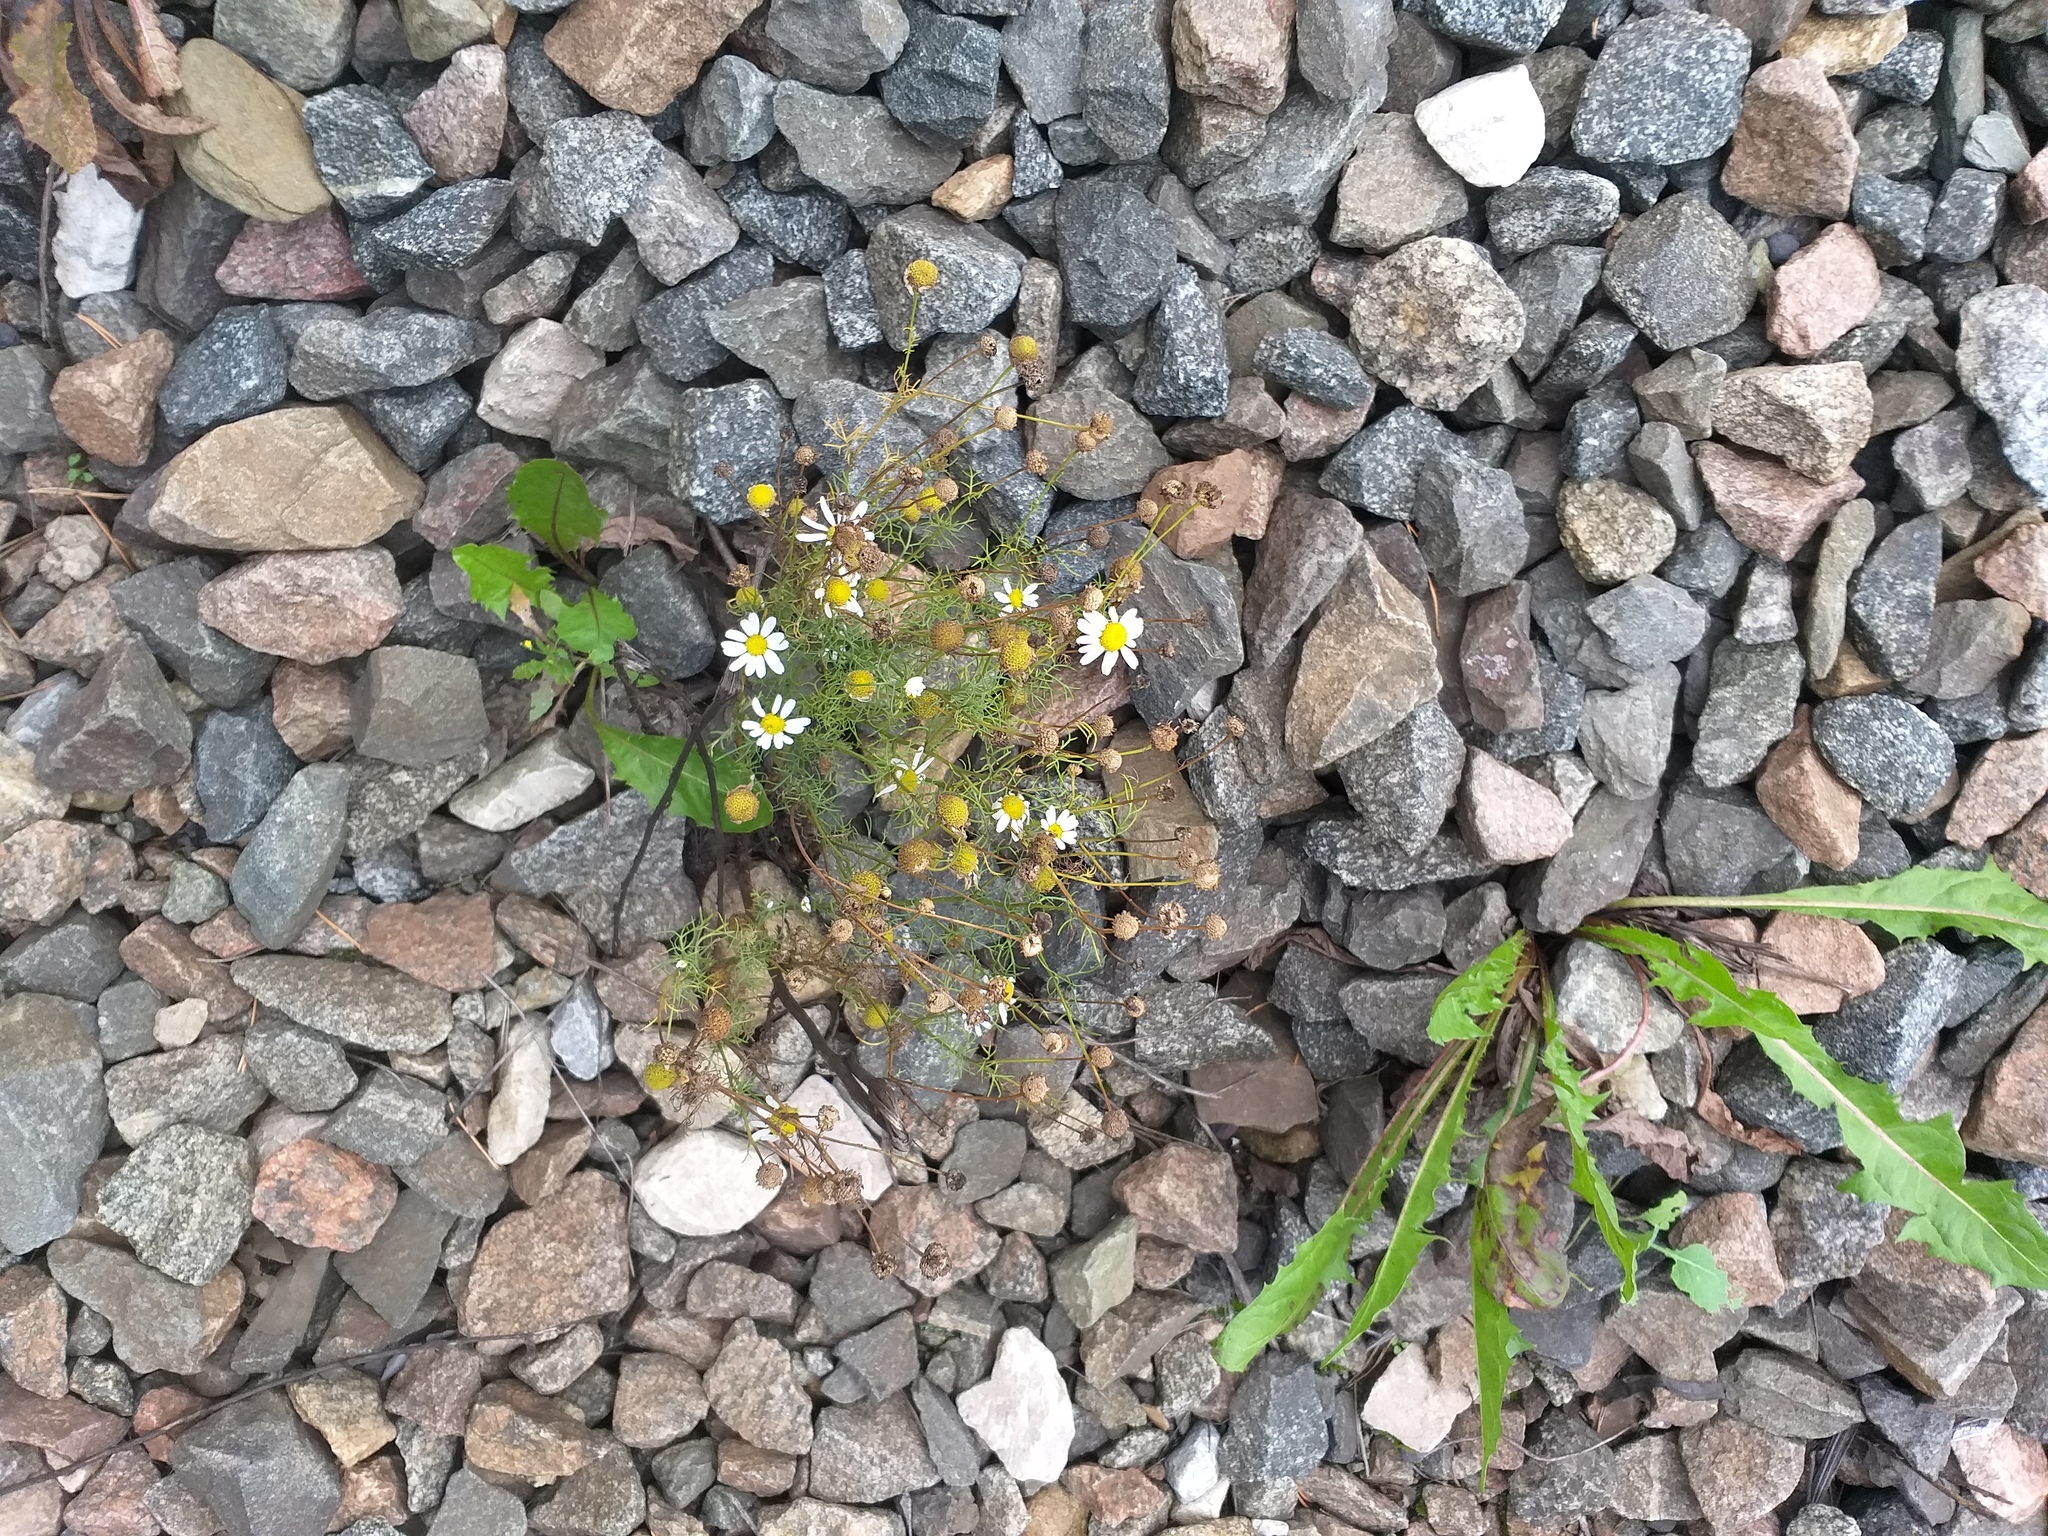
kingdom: Plantae
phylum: Tracheophyta
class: Magnoliopsida
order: Asterales
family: Asteraceae
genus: Tripleurospermum
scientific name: Tripleurospermum inodorum
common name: Scentless mayweed
